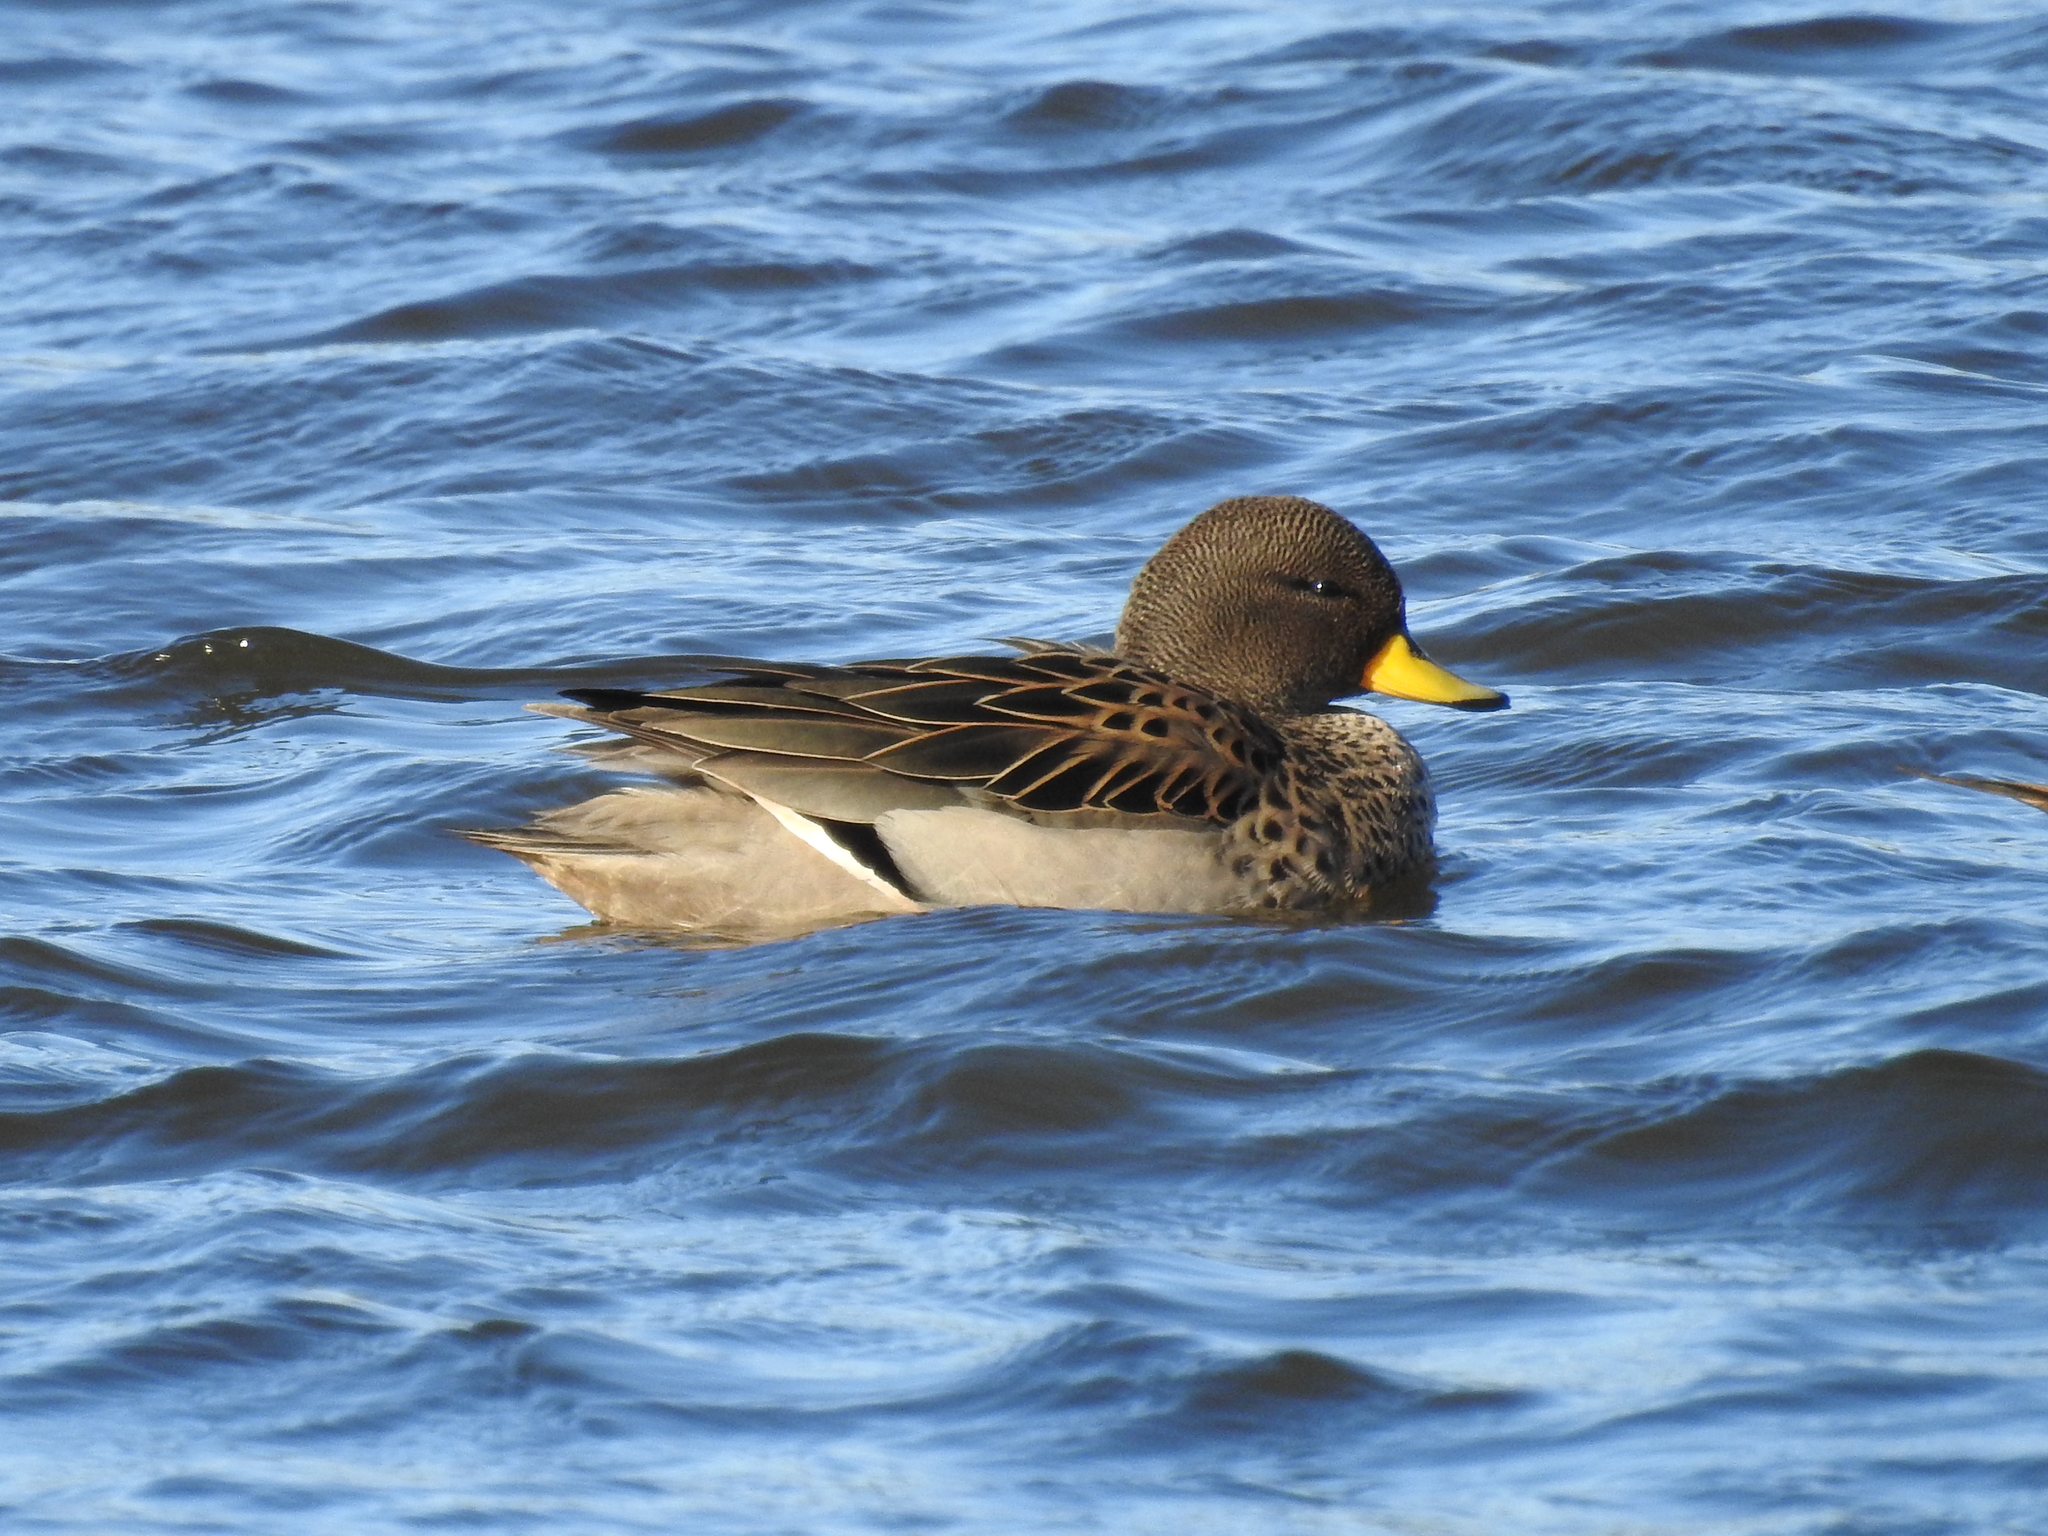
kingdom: Animalia
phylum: Chordata
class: Aves
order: Anseriformes
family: Anatidae
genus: Anas
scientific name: Anas flavirostris
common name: Yellow-billed teal
